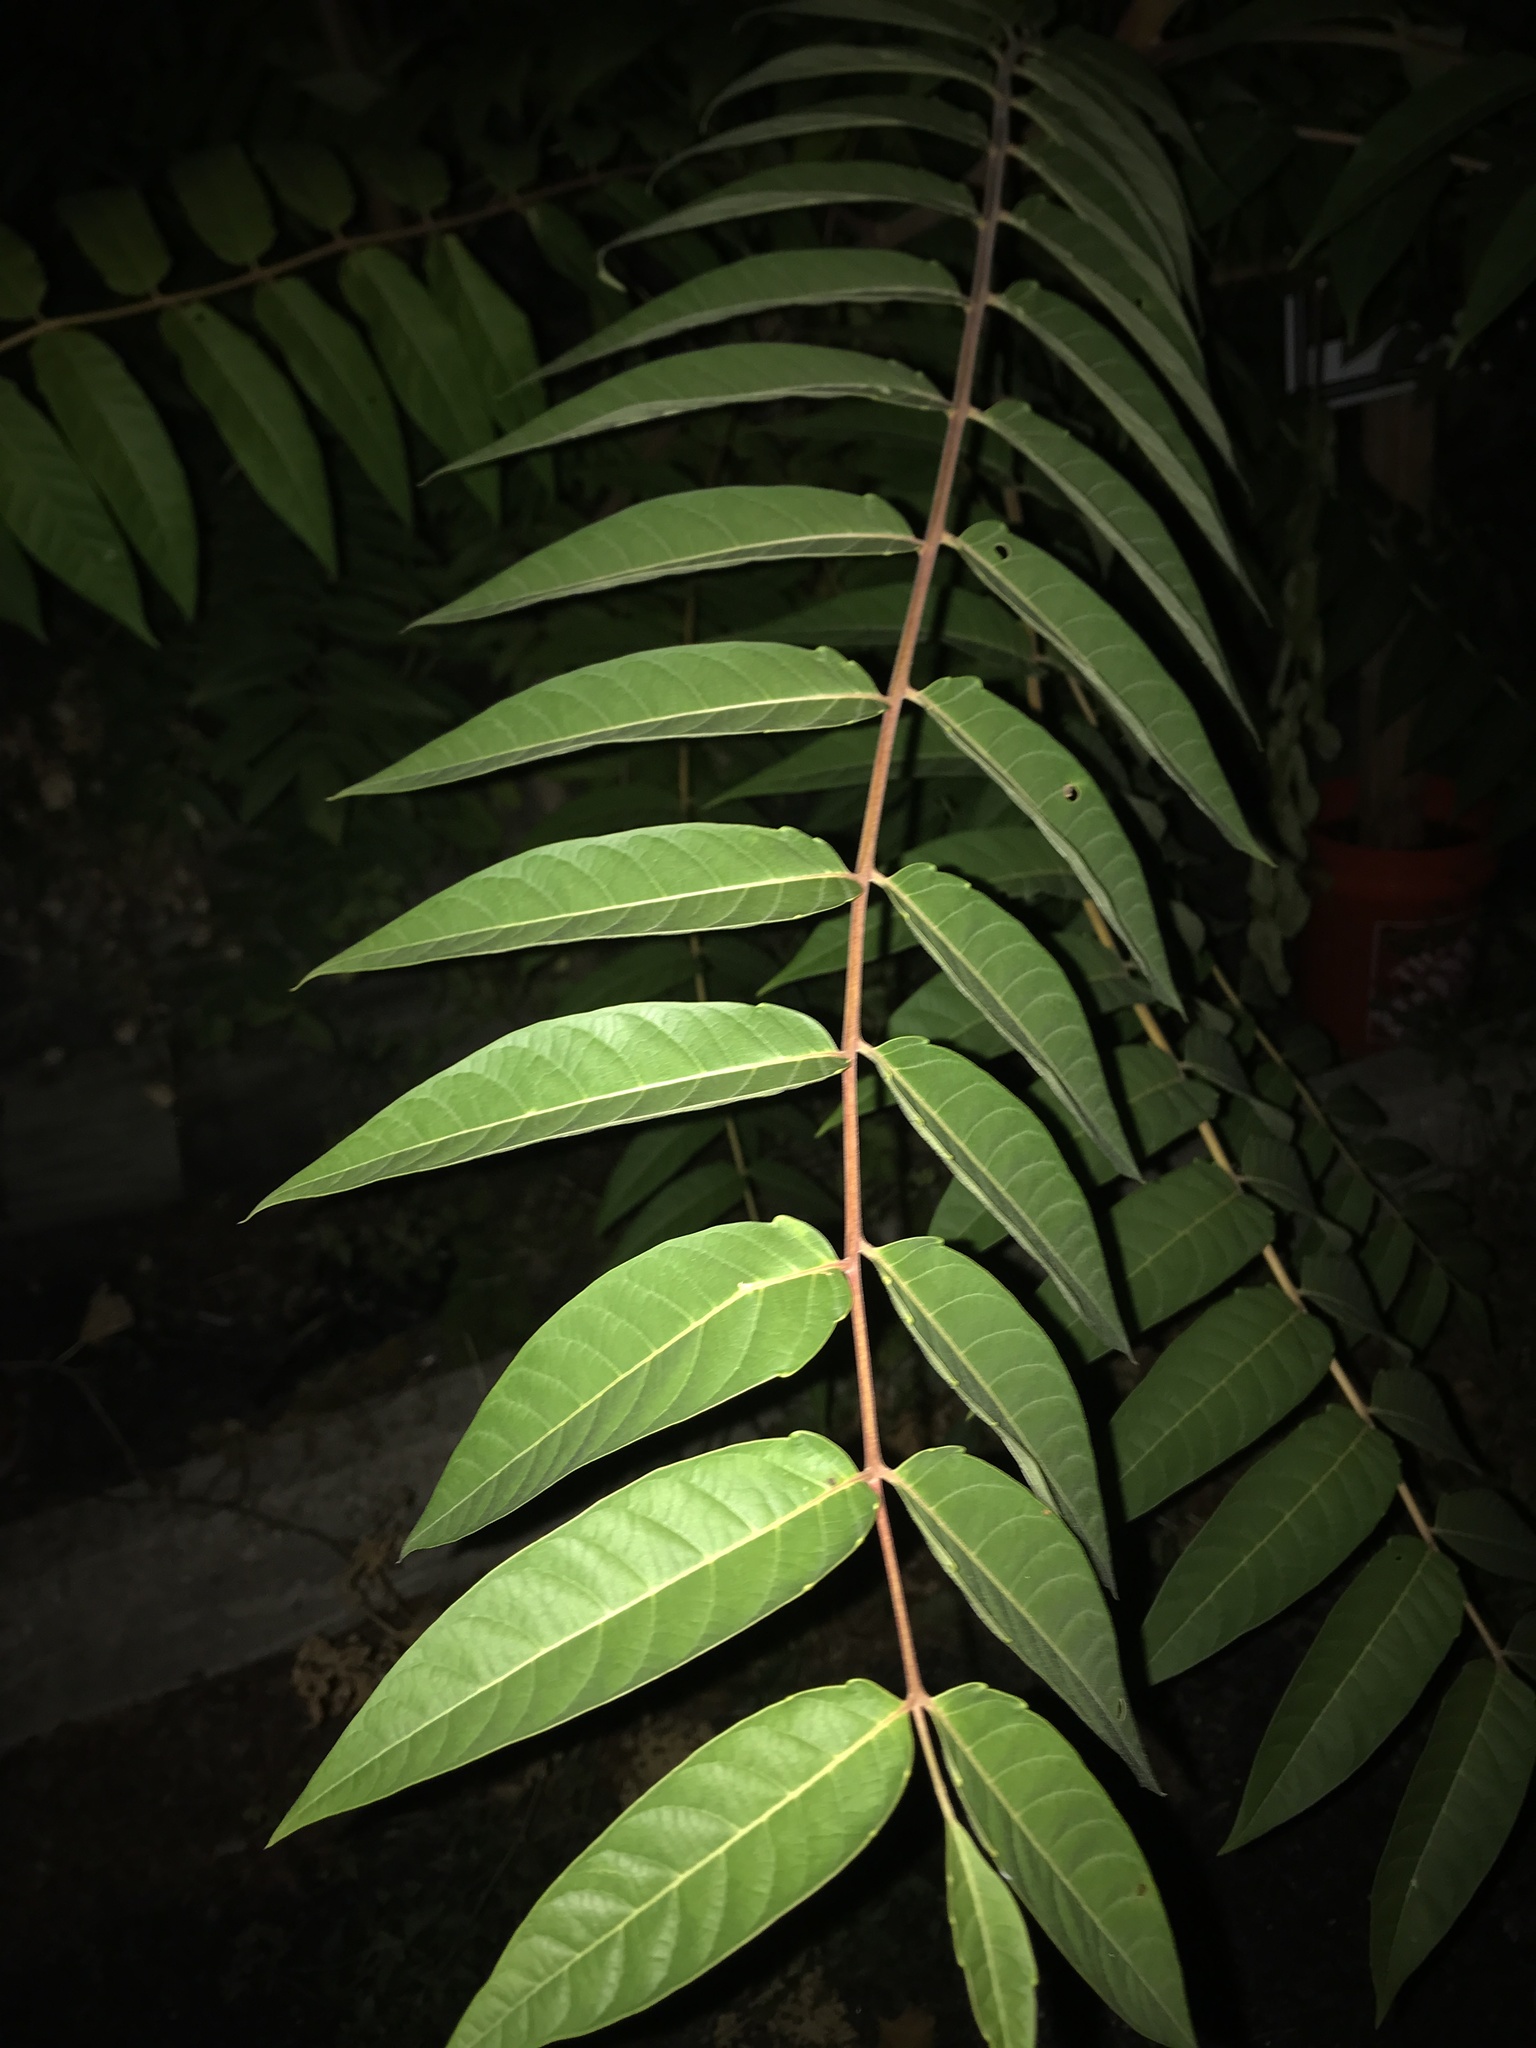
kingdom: Plantae
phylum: Tracheophyta
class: Magnoliopsida
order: Sapindales
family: Simaroubaceae
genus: Ailanthus
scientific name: Ailanthus altissima
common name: Tree-of-heaven
